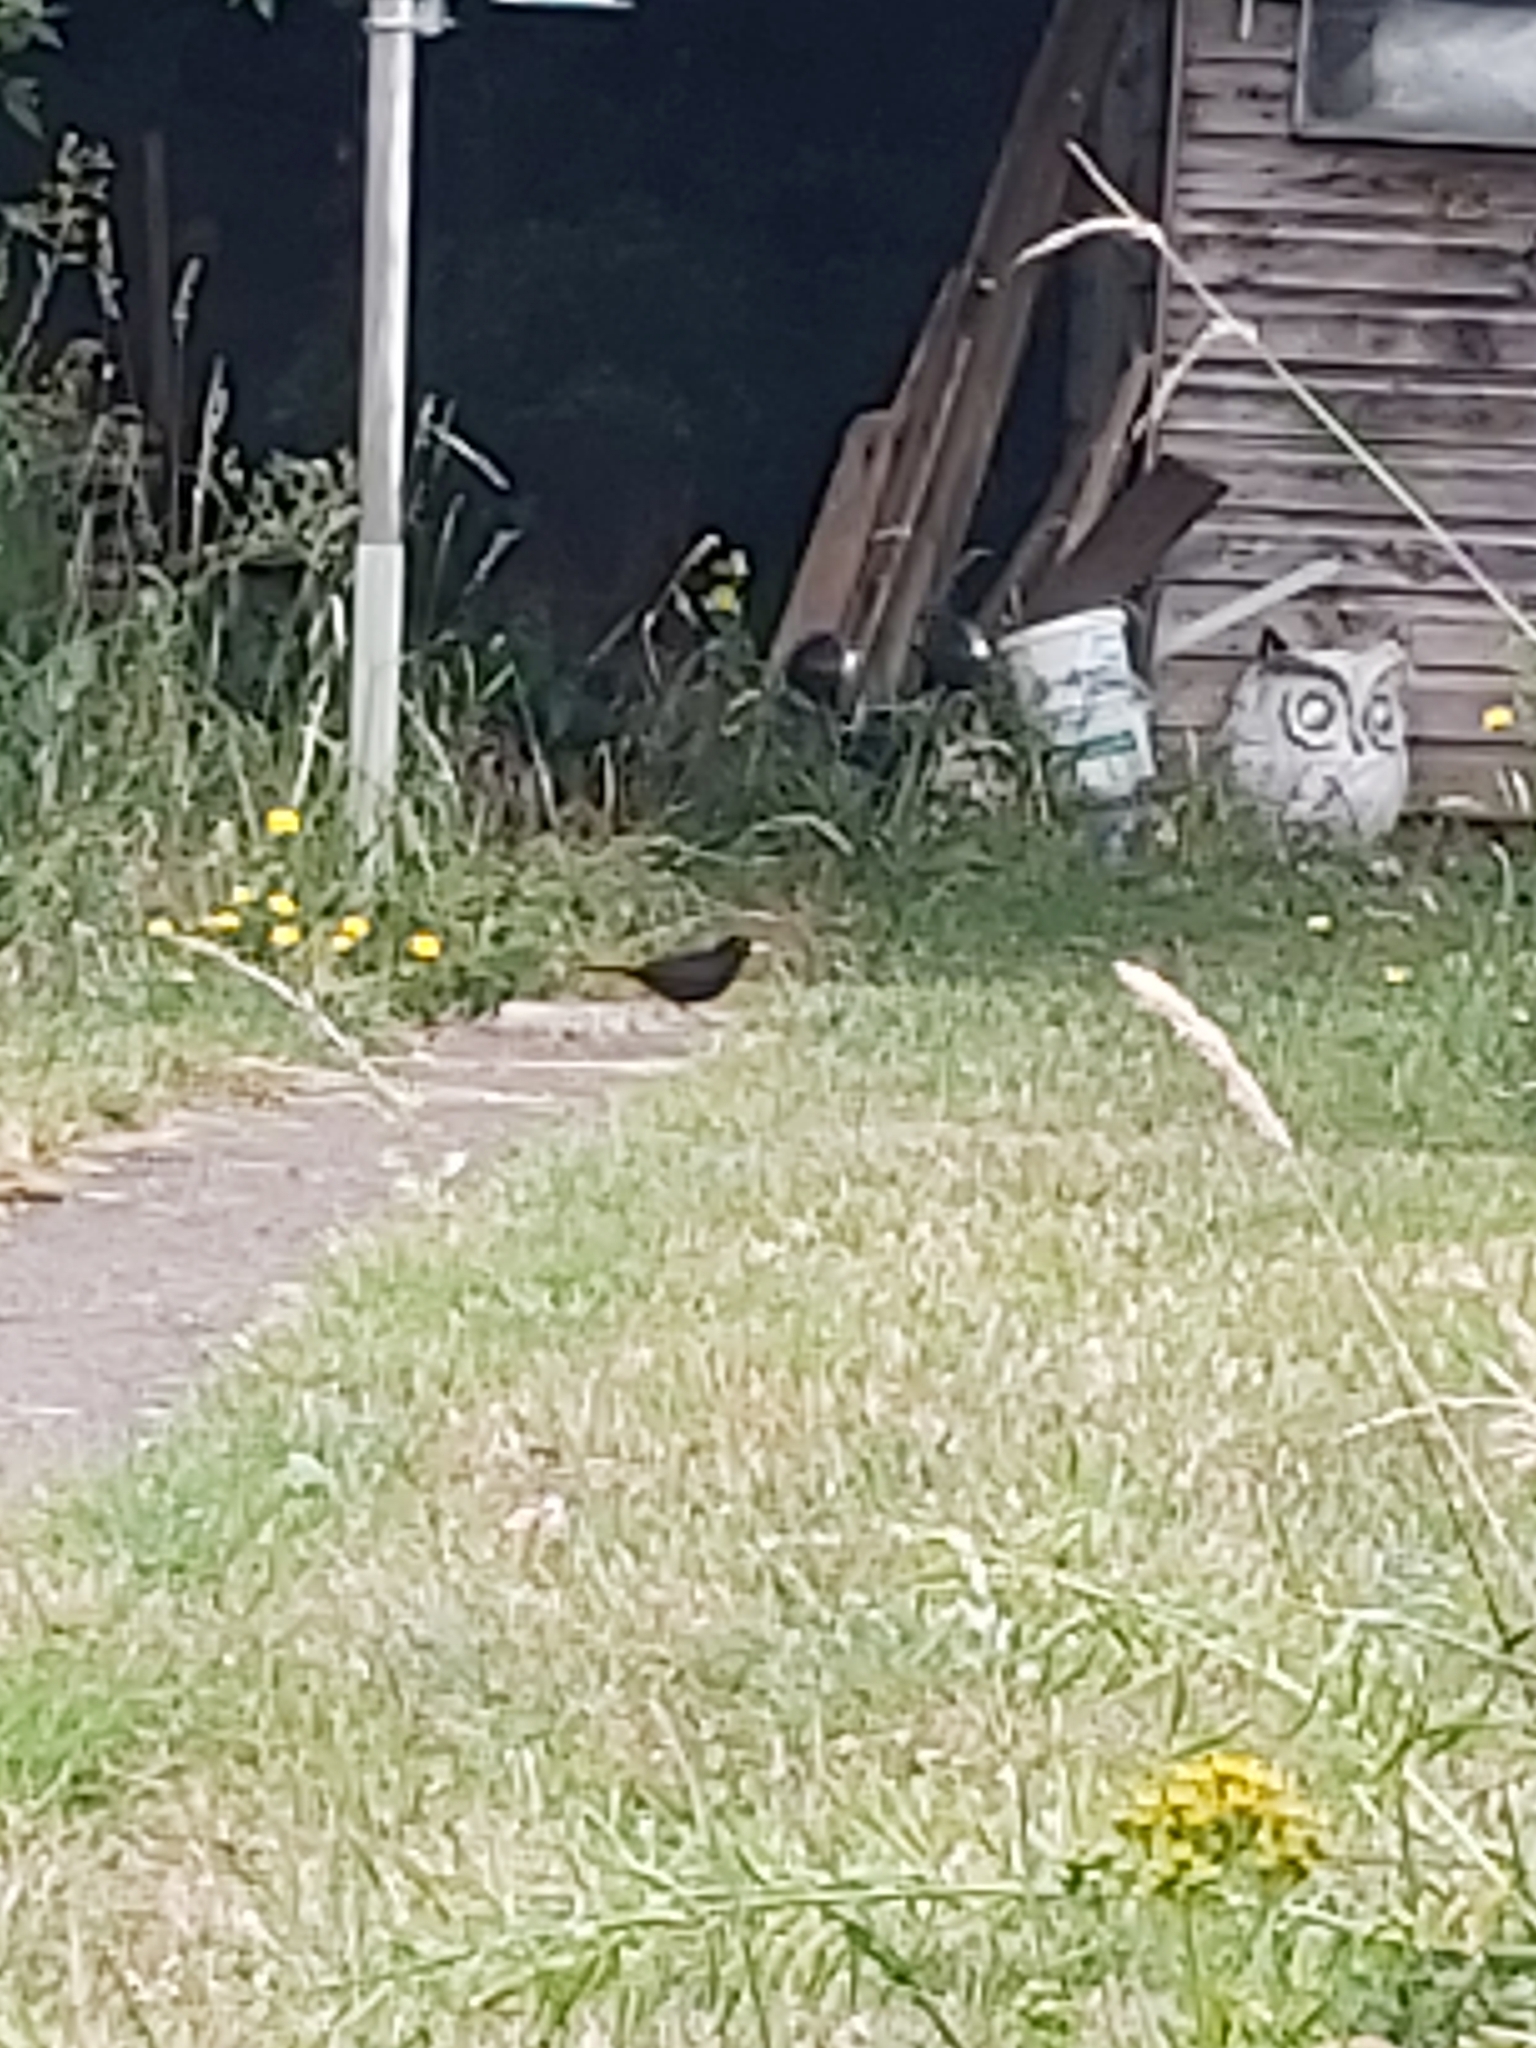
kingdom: Animalia
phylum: Chordata
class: Aves
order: Passeriformes
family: Turdidae
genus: Turdus
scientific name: Turdus merula
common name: Common blackbird
